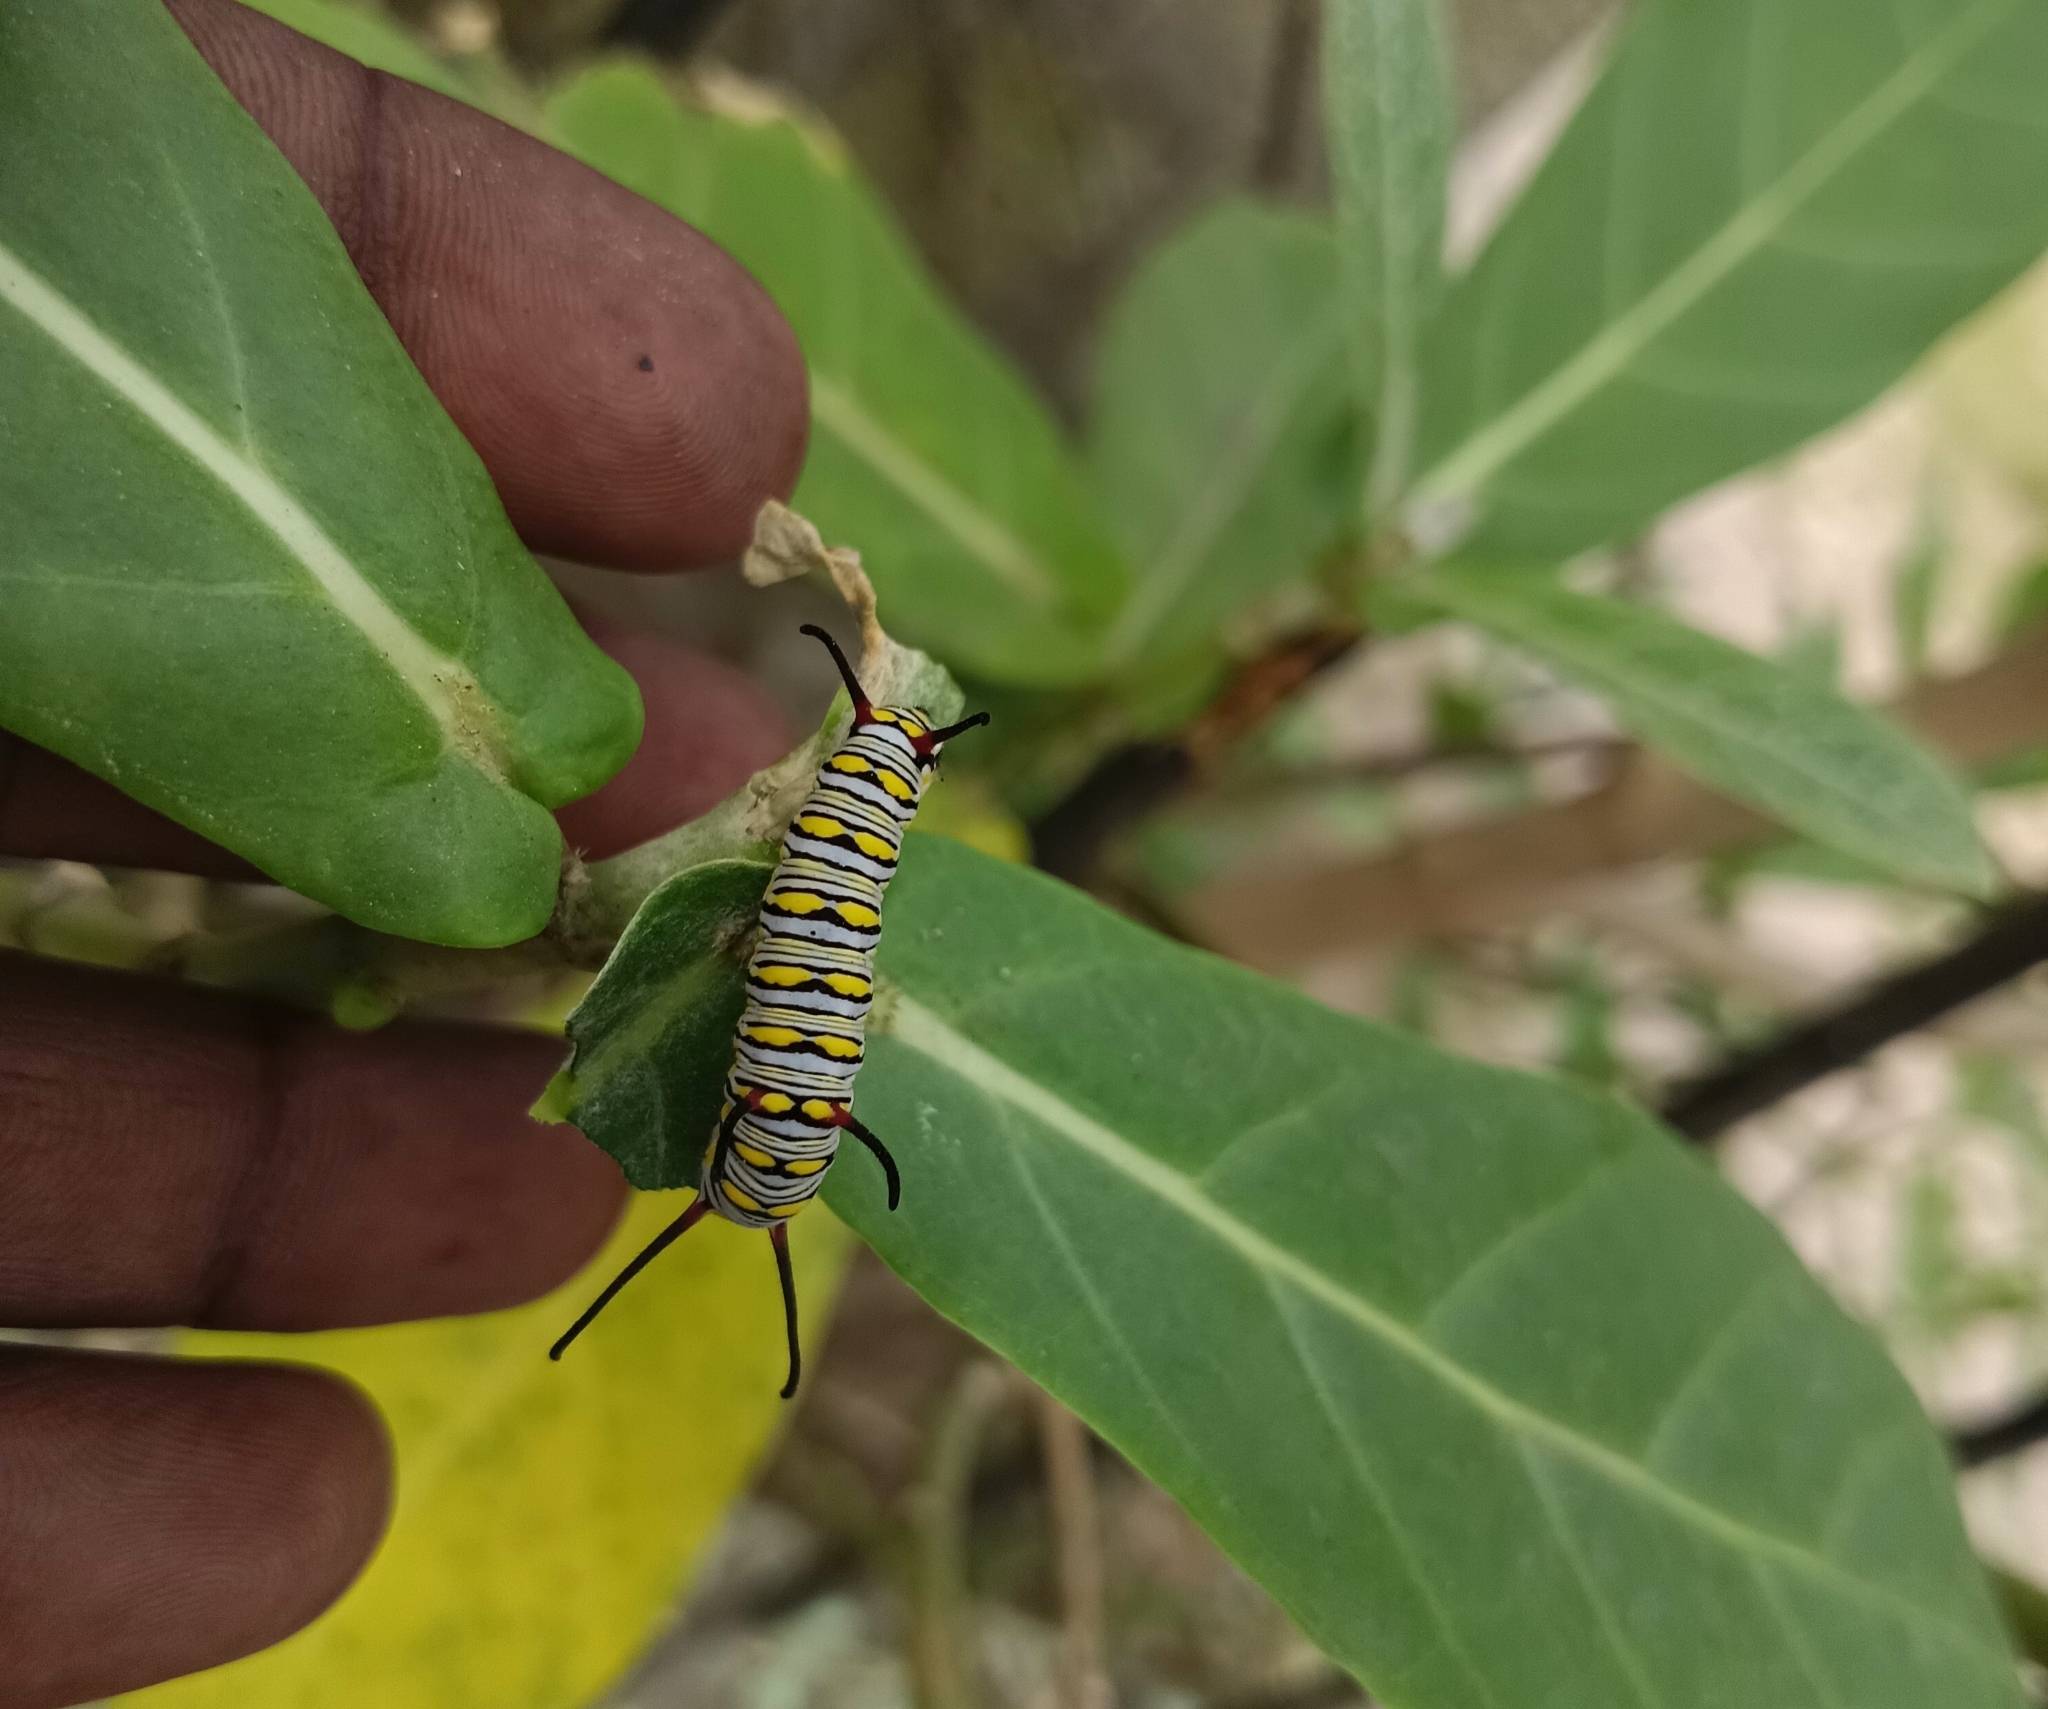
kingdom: Animalia
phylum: Arthropoda
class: Insecta
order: Lepidoptera
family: Nymphalidae
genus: Danaus
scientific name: Danaus chrysippus
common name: Plain tiger
